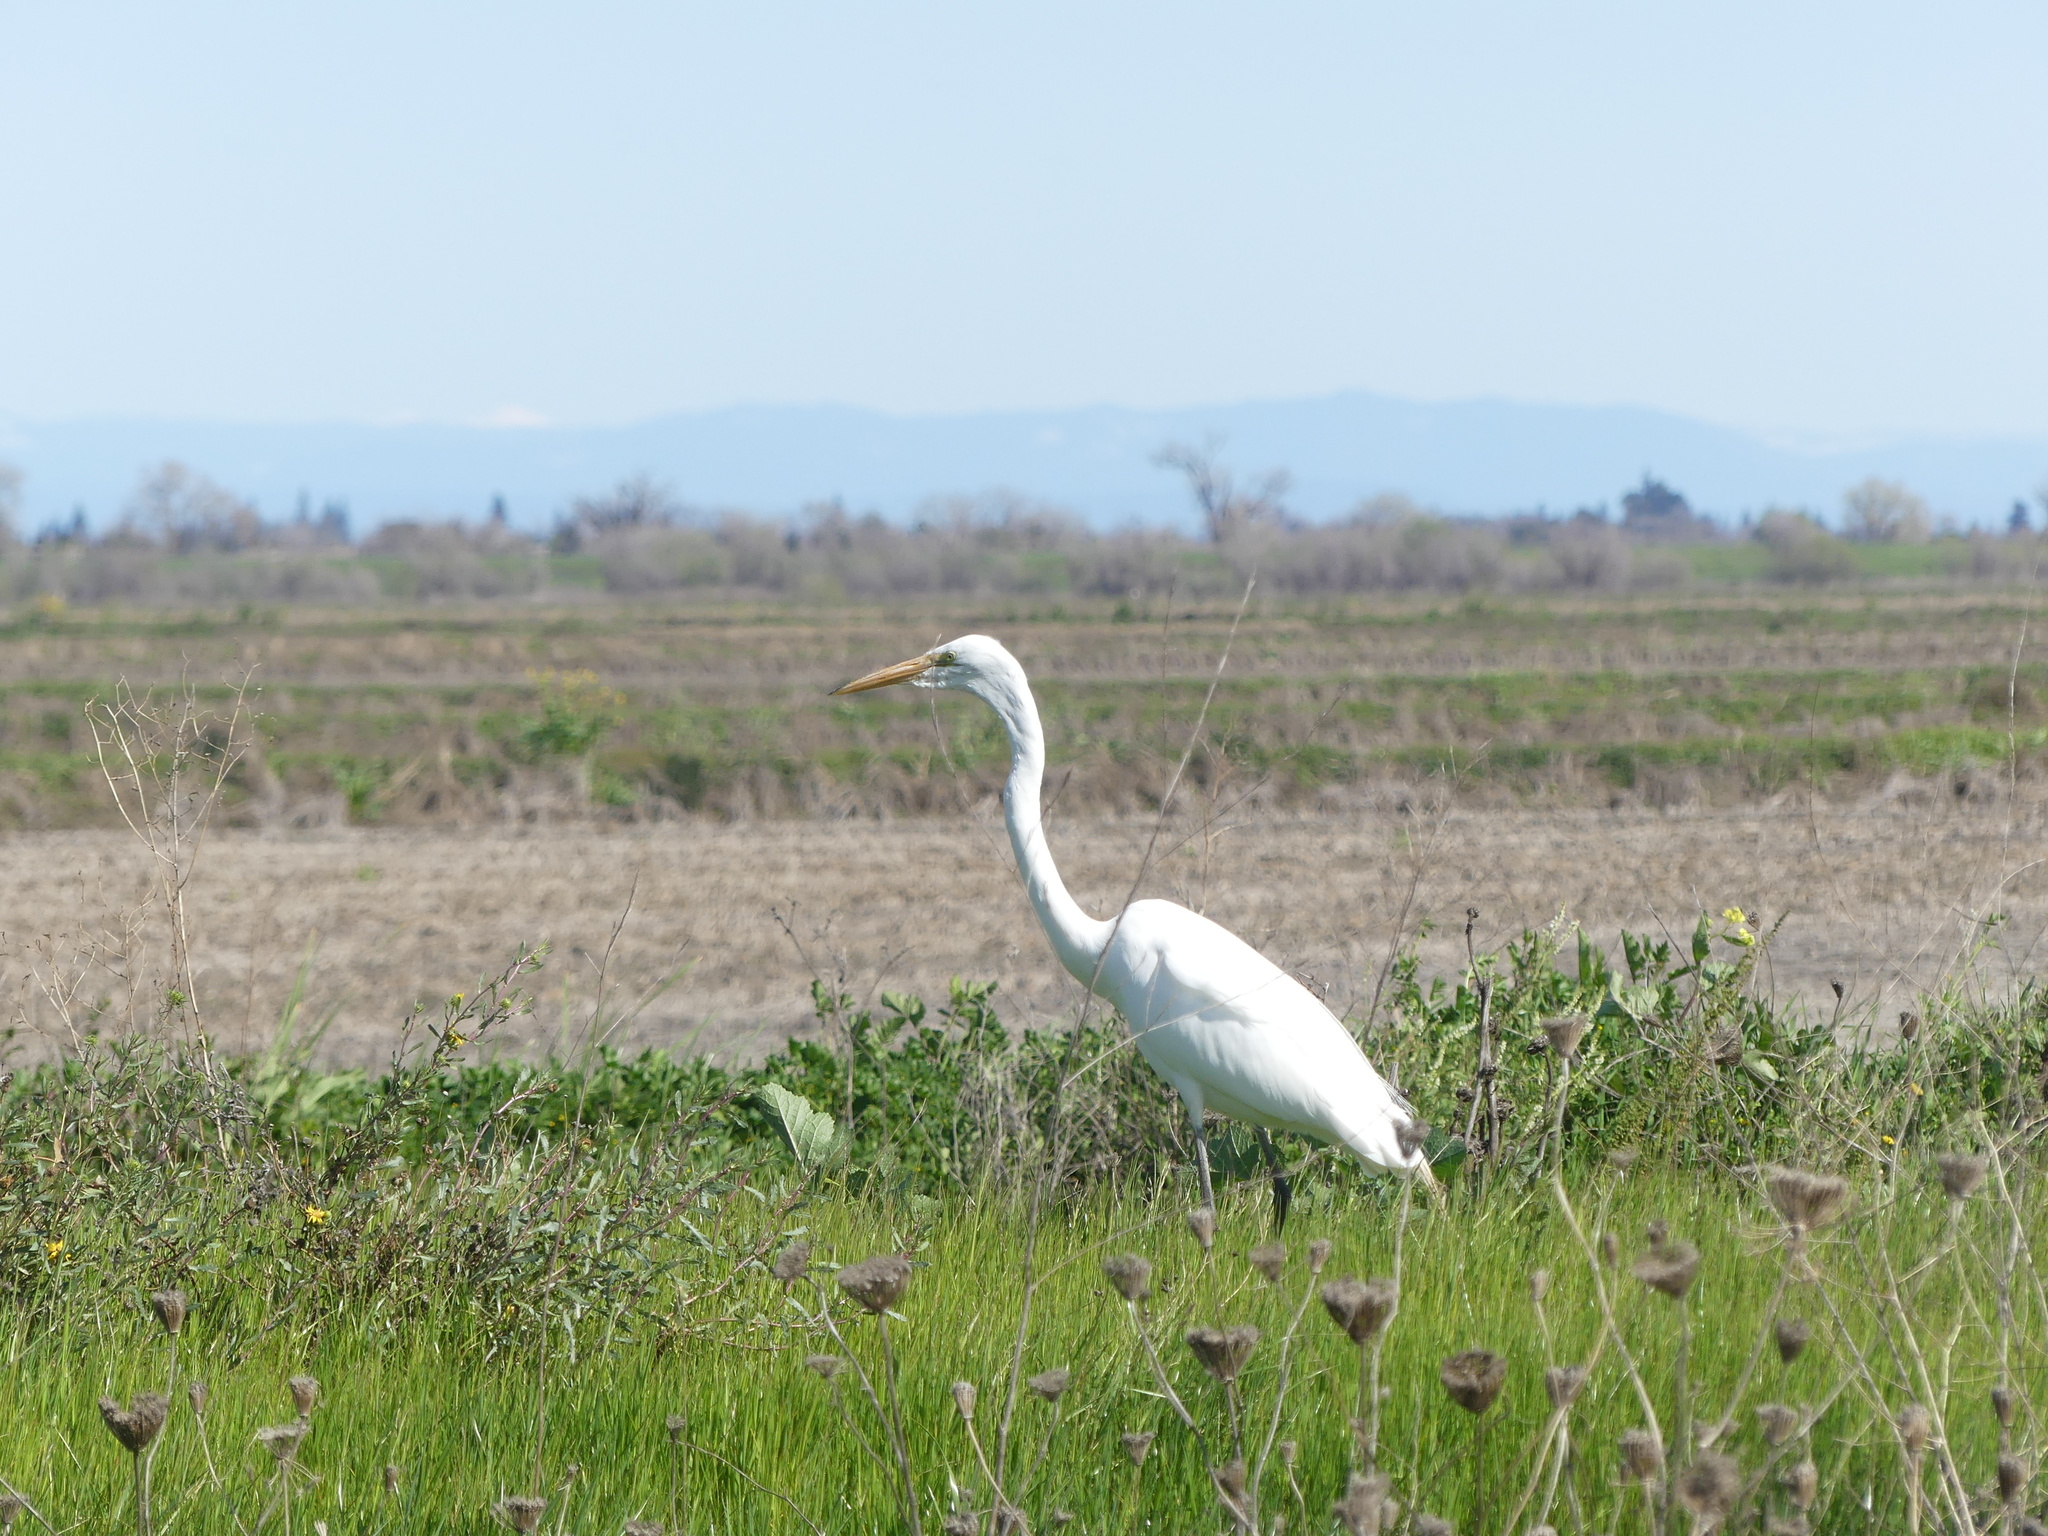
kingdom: Animalia
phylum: Chordata
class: Aves
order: Pelecaniformes
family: Ardeidae
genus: Ardea
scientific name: Ardea alba
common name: Great egret
